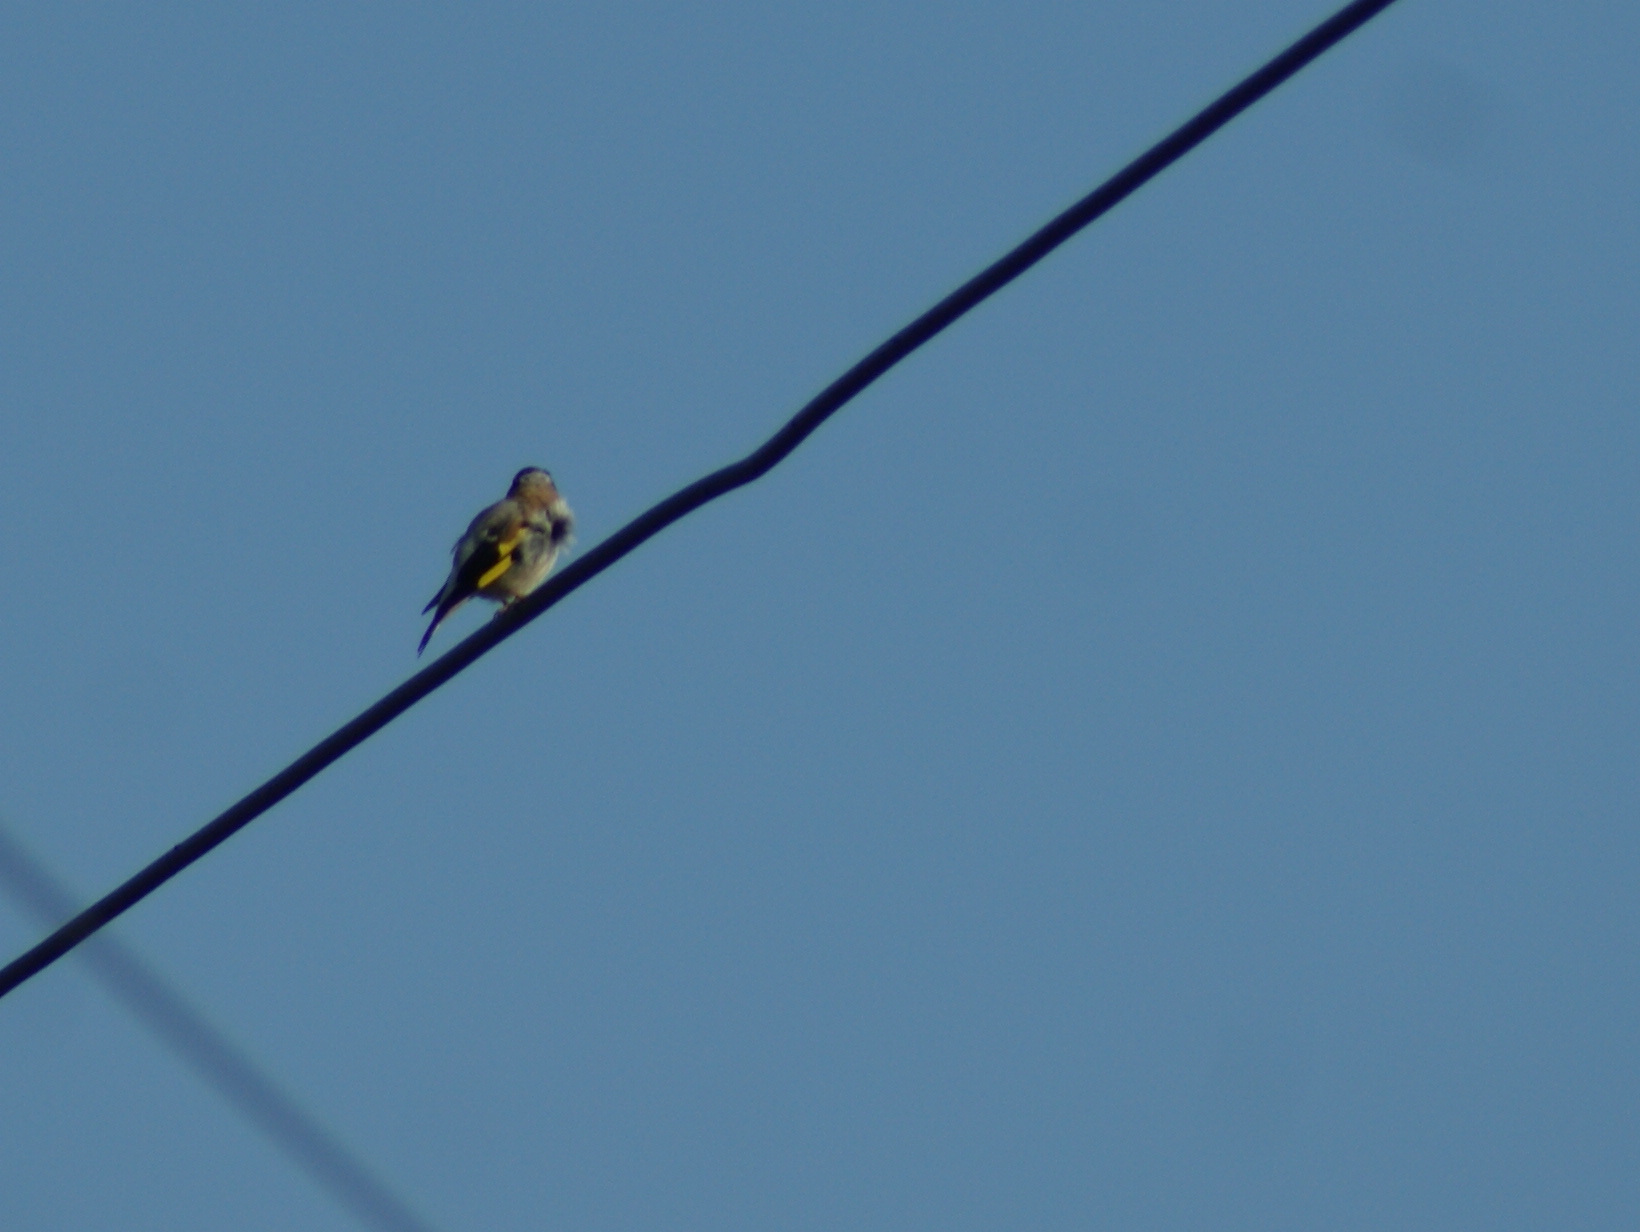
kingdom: Animalia
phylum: Chordata
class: Aves
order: Passeriformes
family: Fringillidae
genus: Carduelis
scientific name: Carduelis carduelis
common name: European goldfinch
